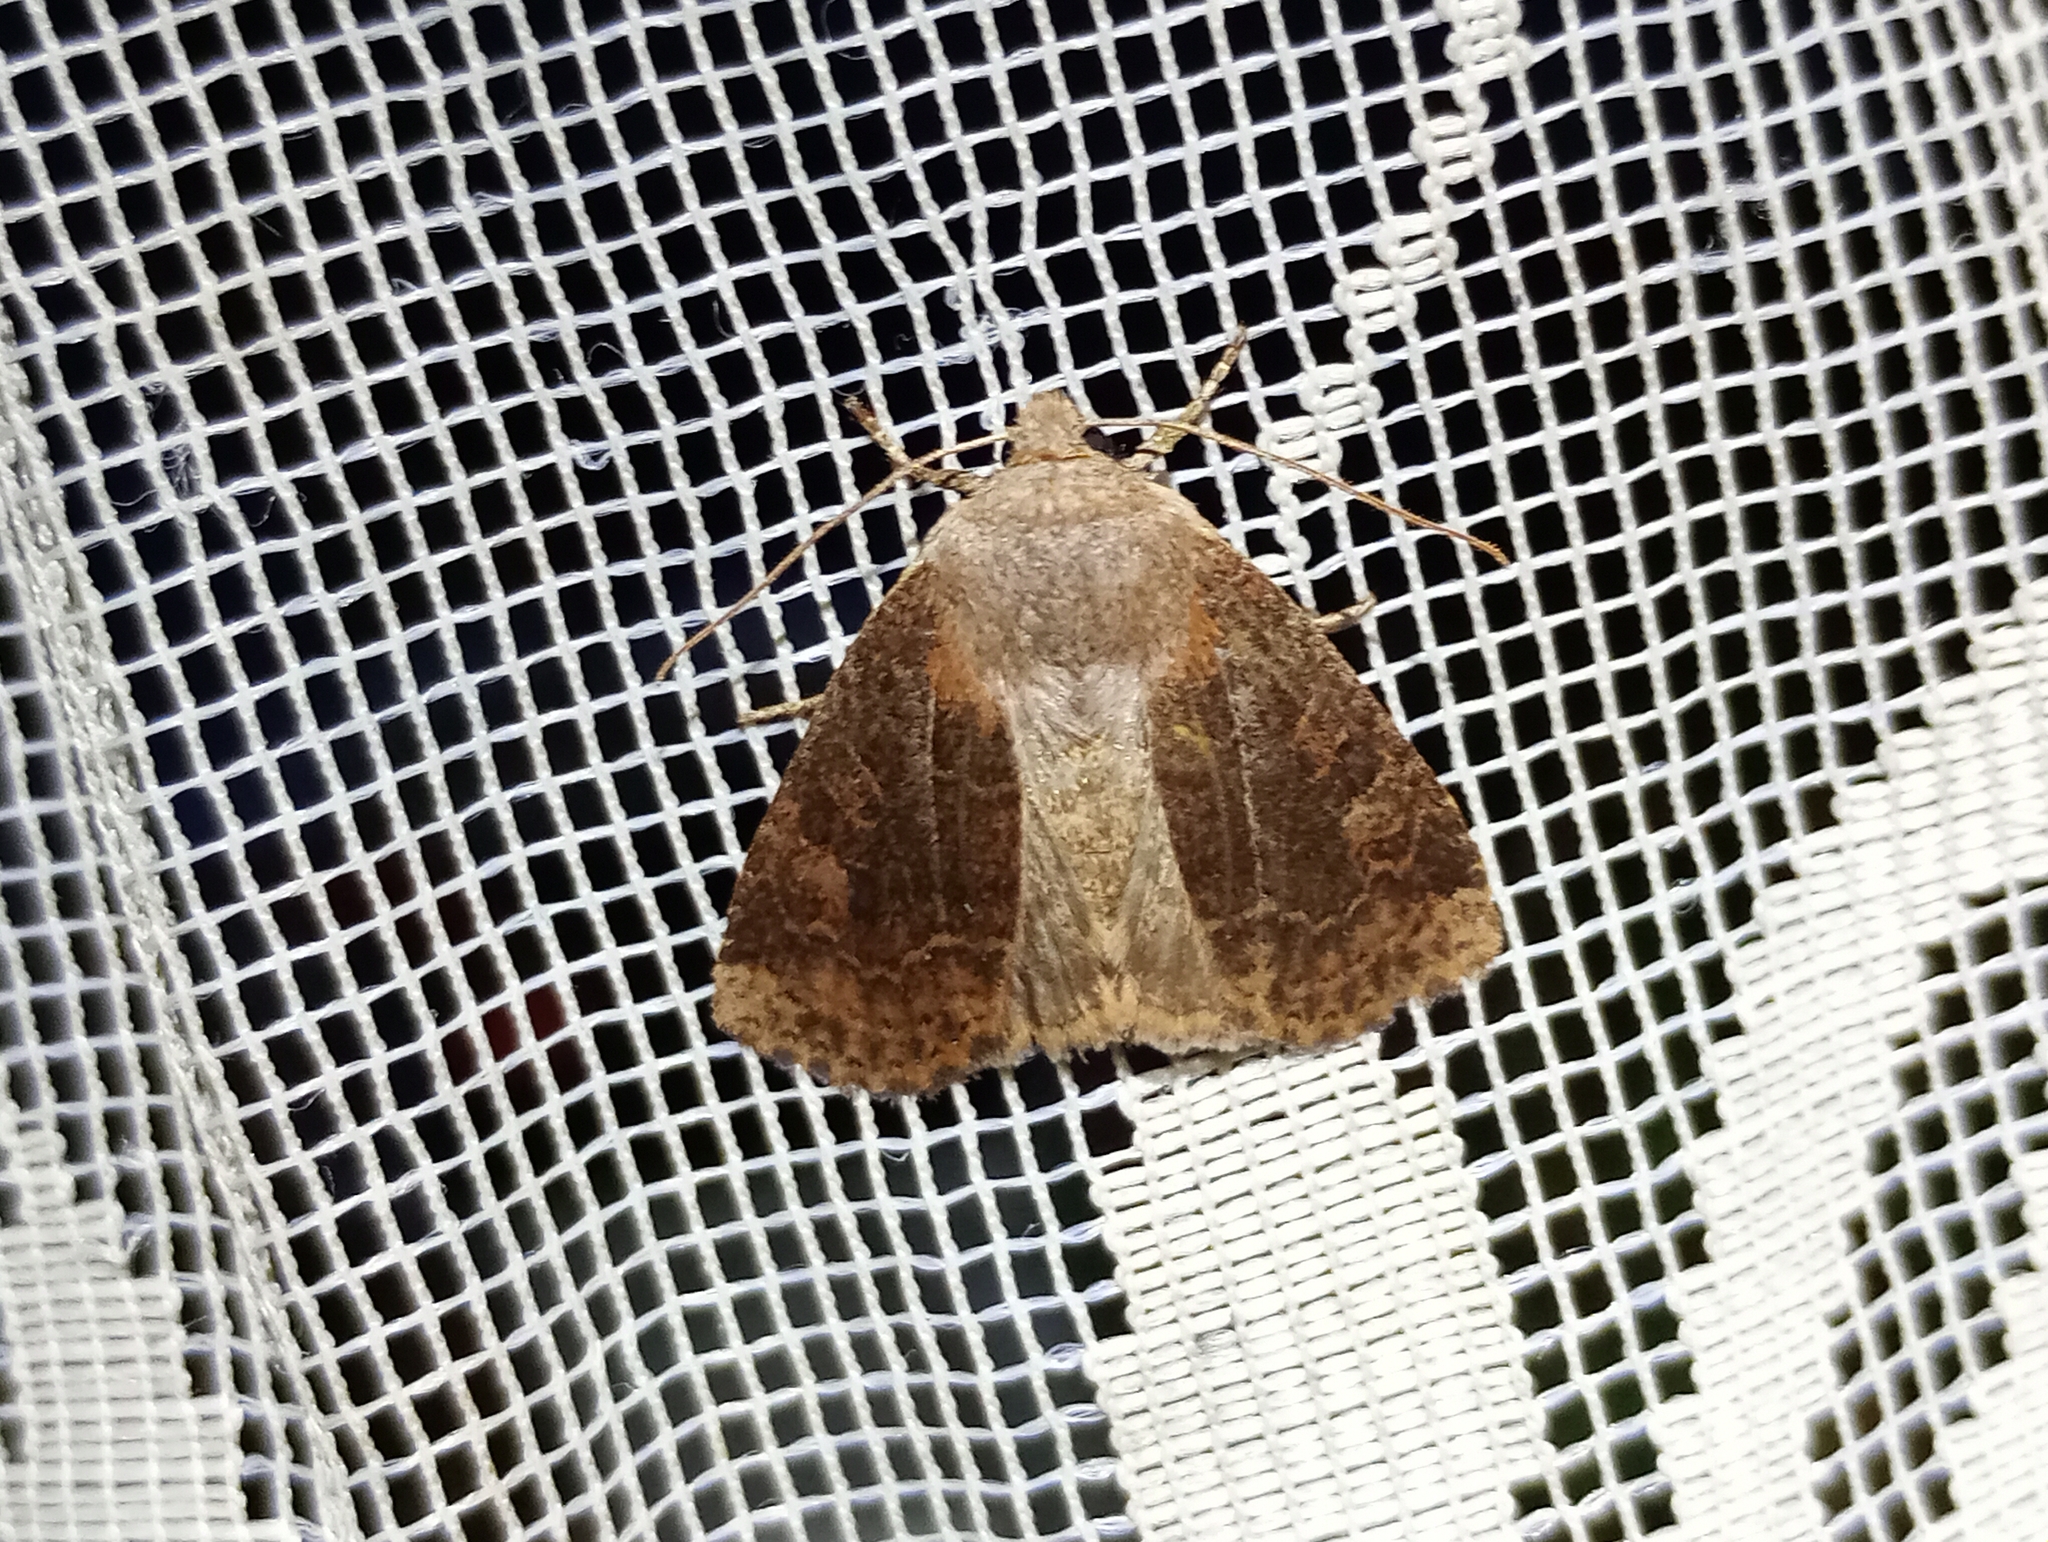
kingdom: Animalia
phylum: Arthropoda
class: Insecta
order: Lepidoptera
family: Noctuidae
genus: Conistra
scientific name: Conistra vaccinii
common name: Chestnut
